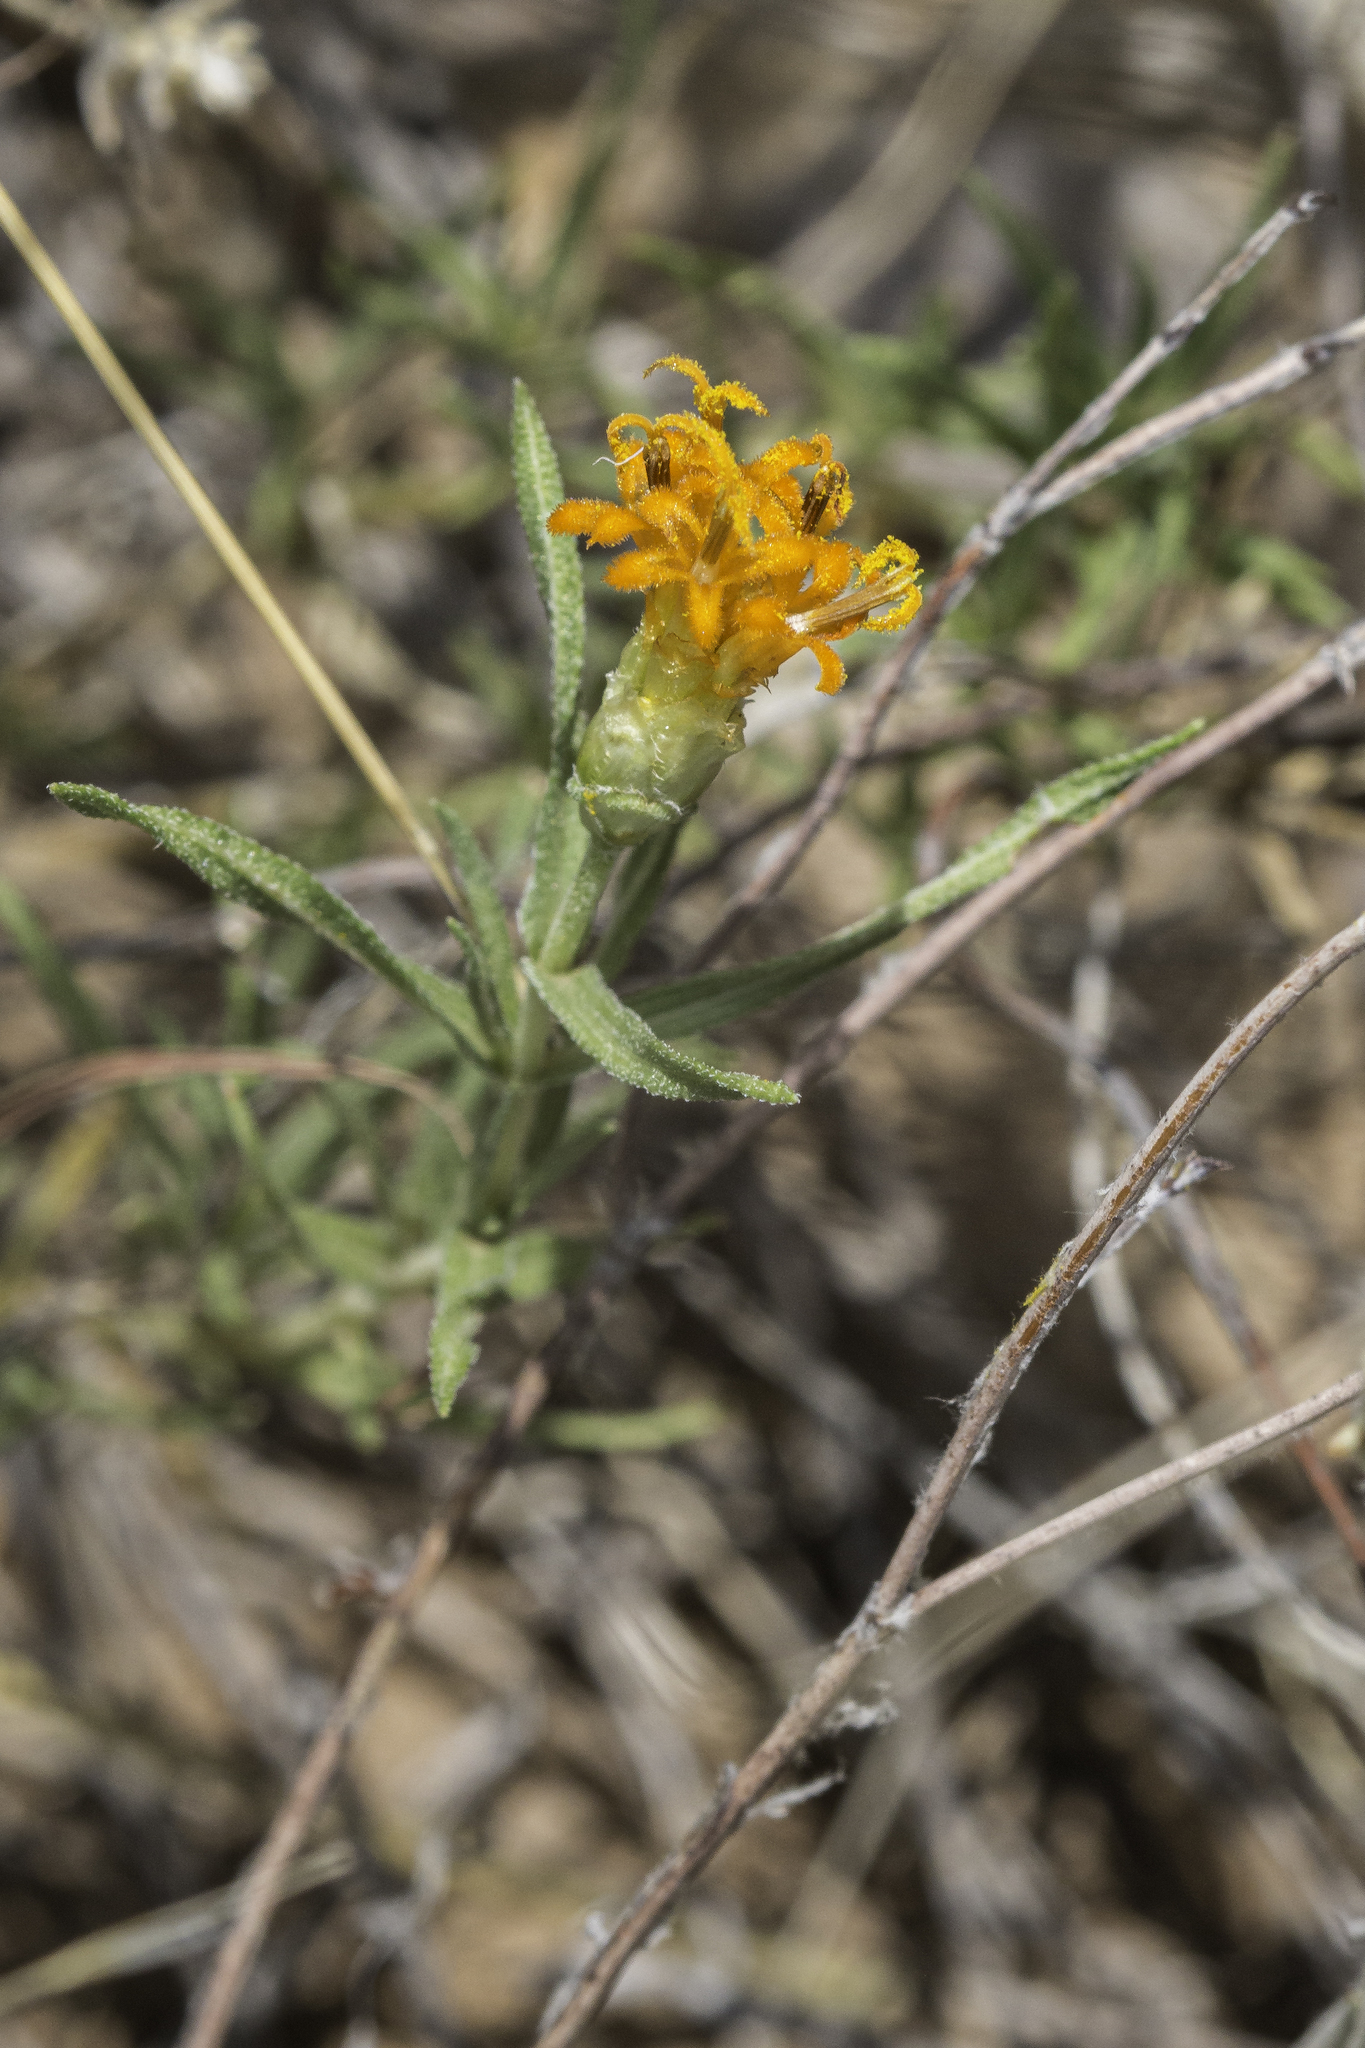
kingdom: Plantae
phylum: Tracheophyta
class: Magnoliopsida
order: Asterales
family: Asteraceae
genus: Zinnia
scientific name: Zinnia grandiflora
